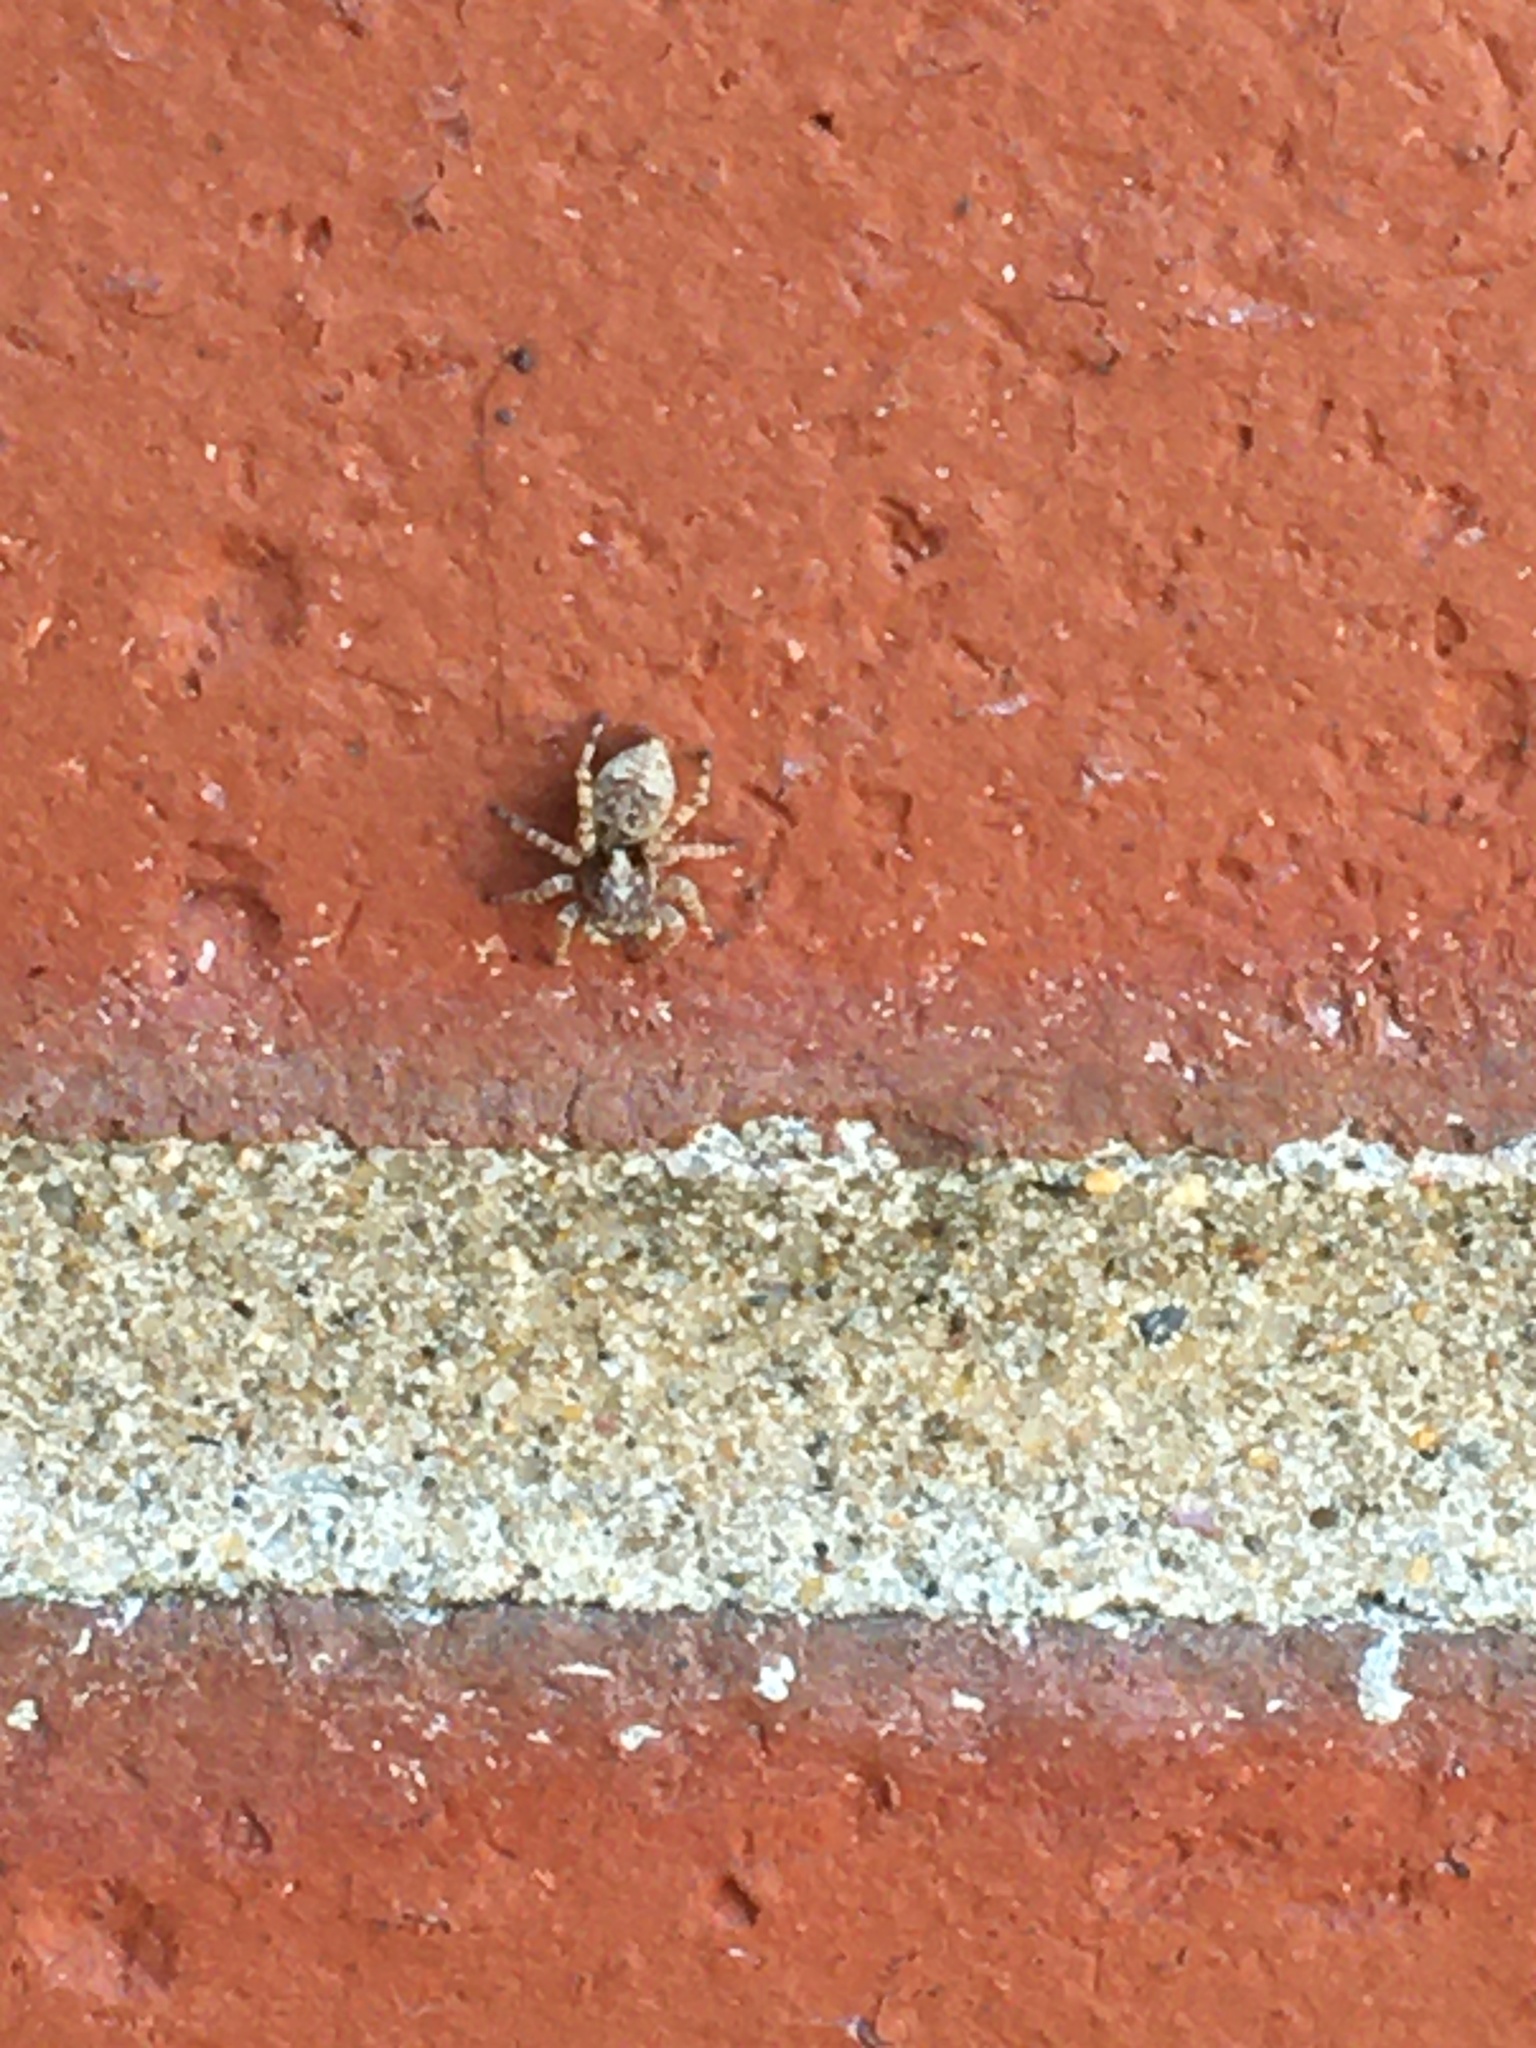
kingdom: Animalia
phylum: Arthropoda
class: Arachnida
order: Araneae
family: Salticidae
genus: Attulus
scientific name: Attulus fasciger
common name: Asiatic wall jumping spider
